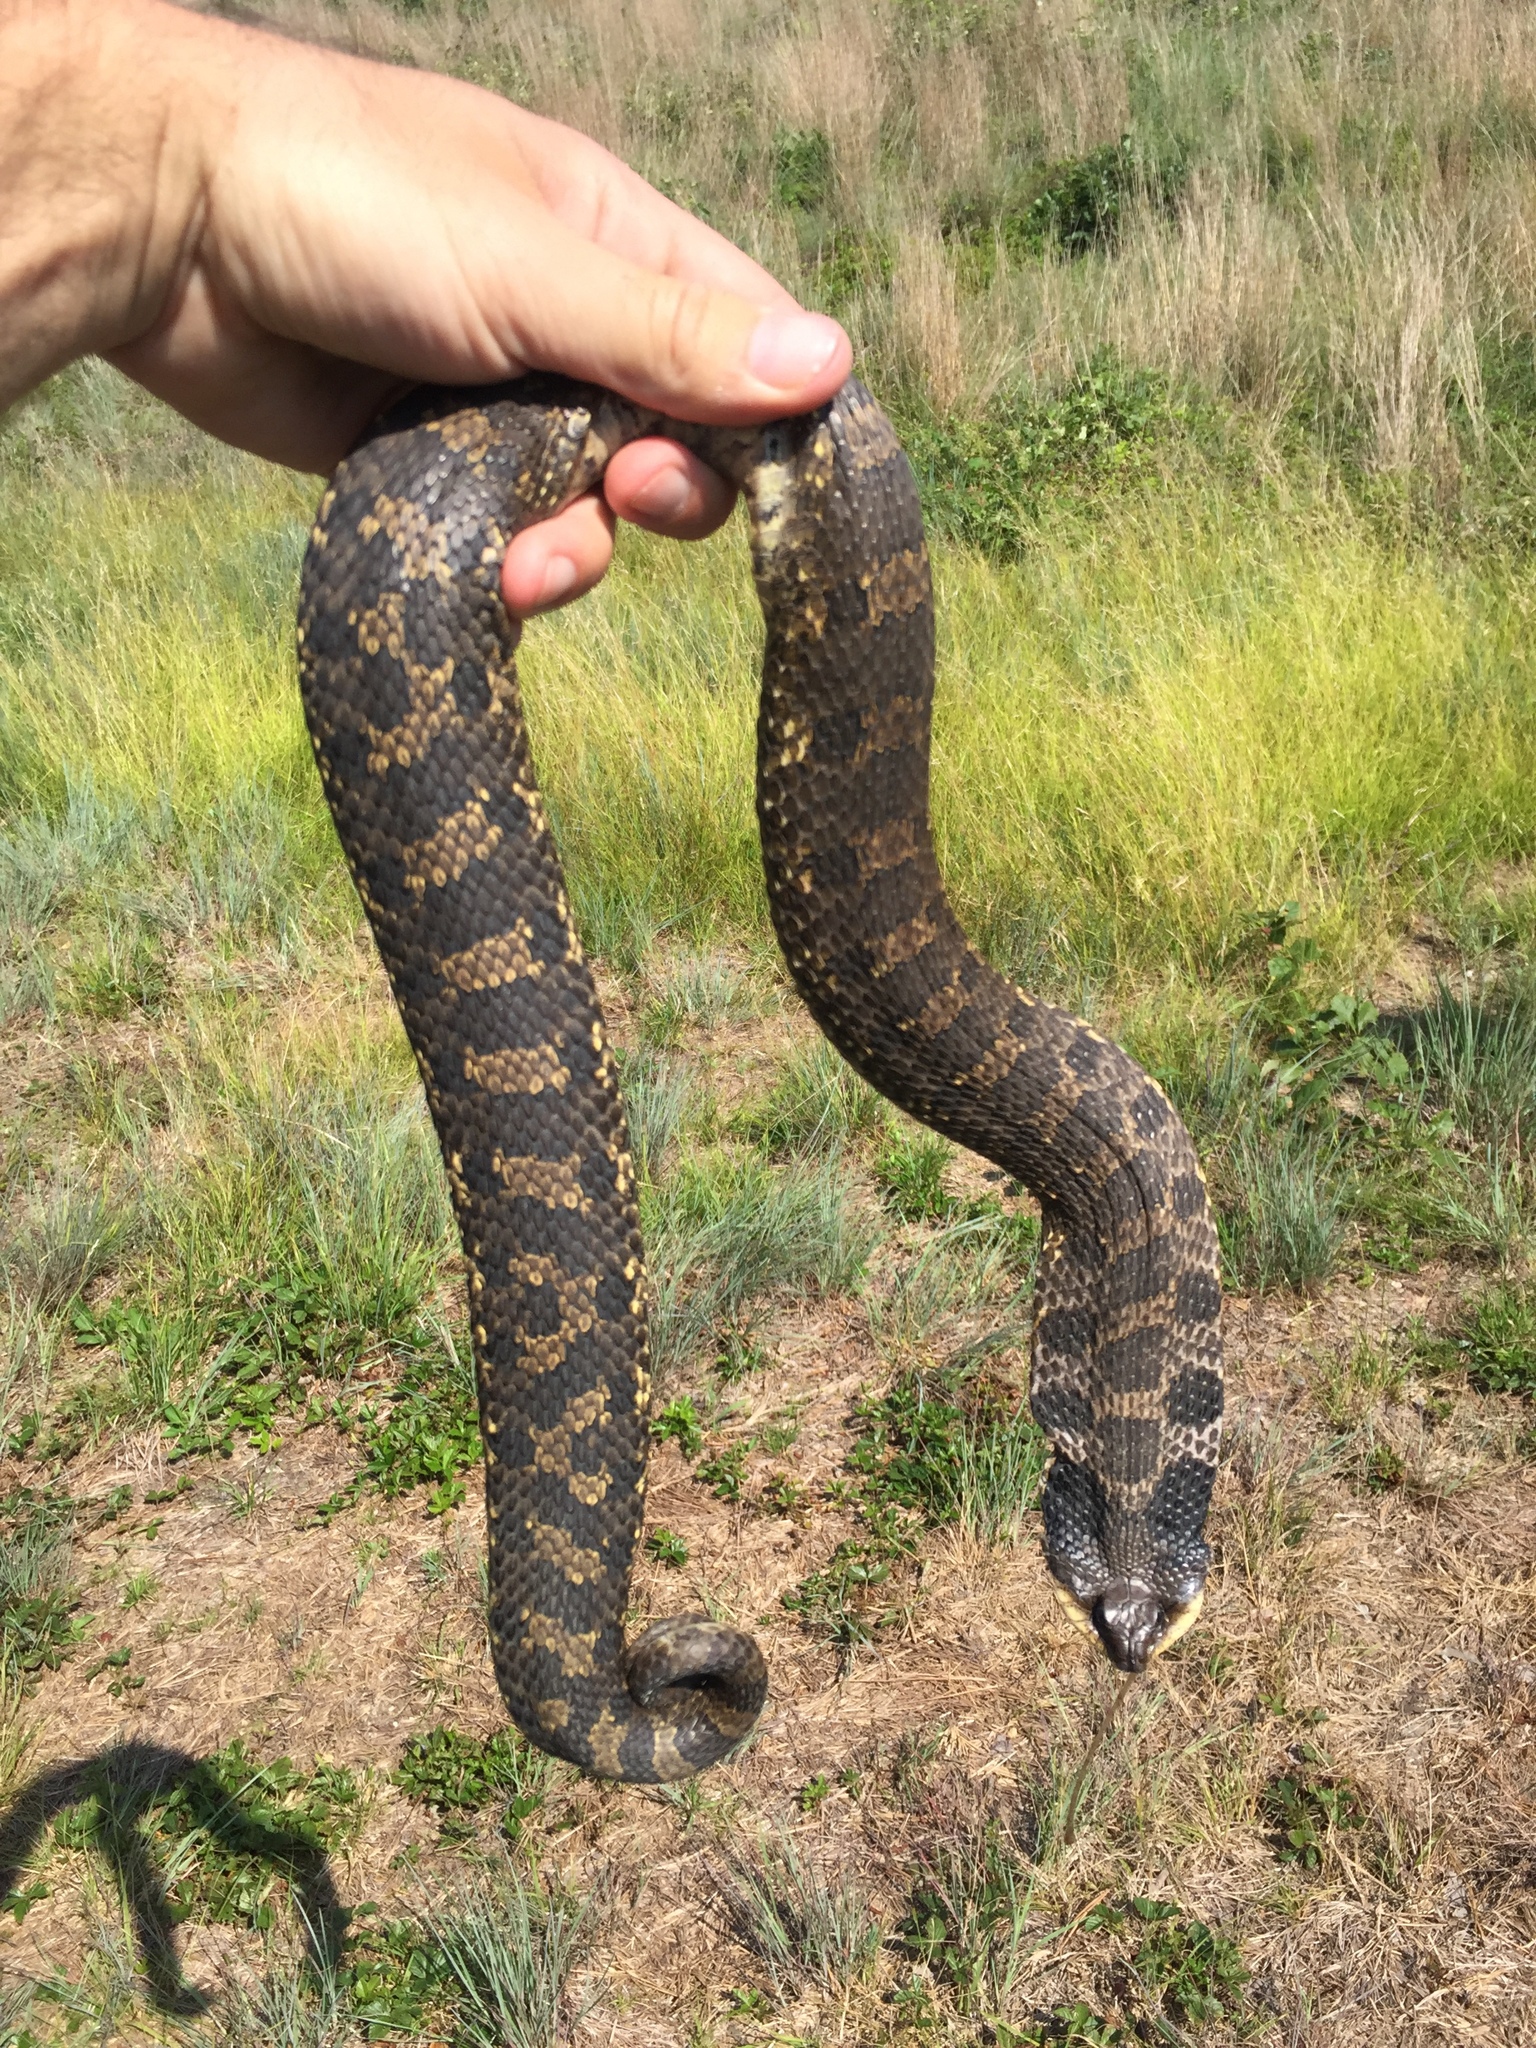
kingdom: Animalia
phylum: Chordata
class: Squamata
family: Colubridae
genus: Heterodon
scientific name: Heterodon platirhinos
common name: Eastern hognose snake
